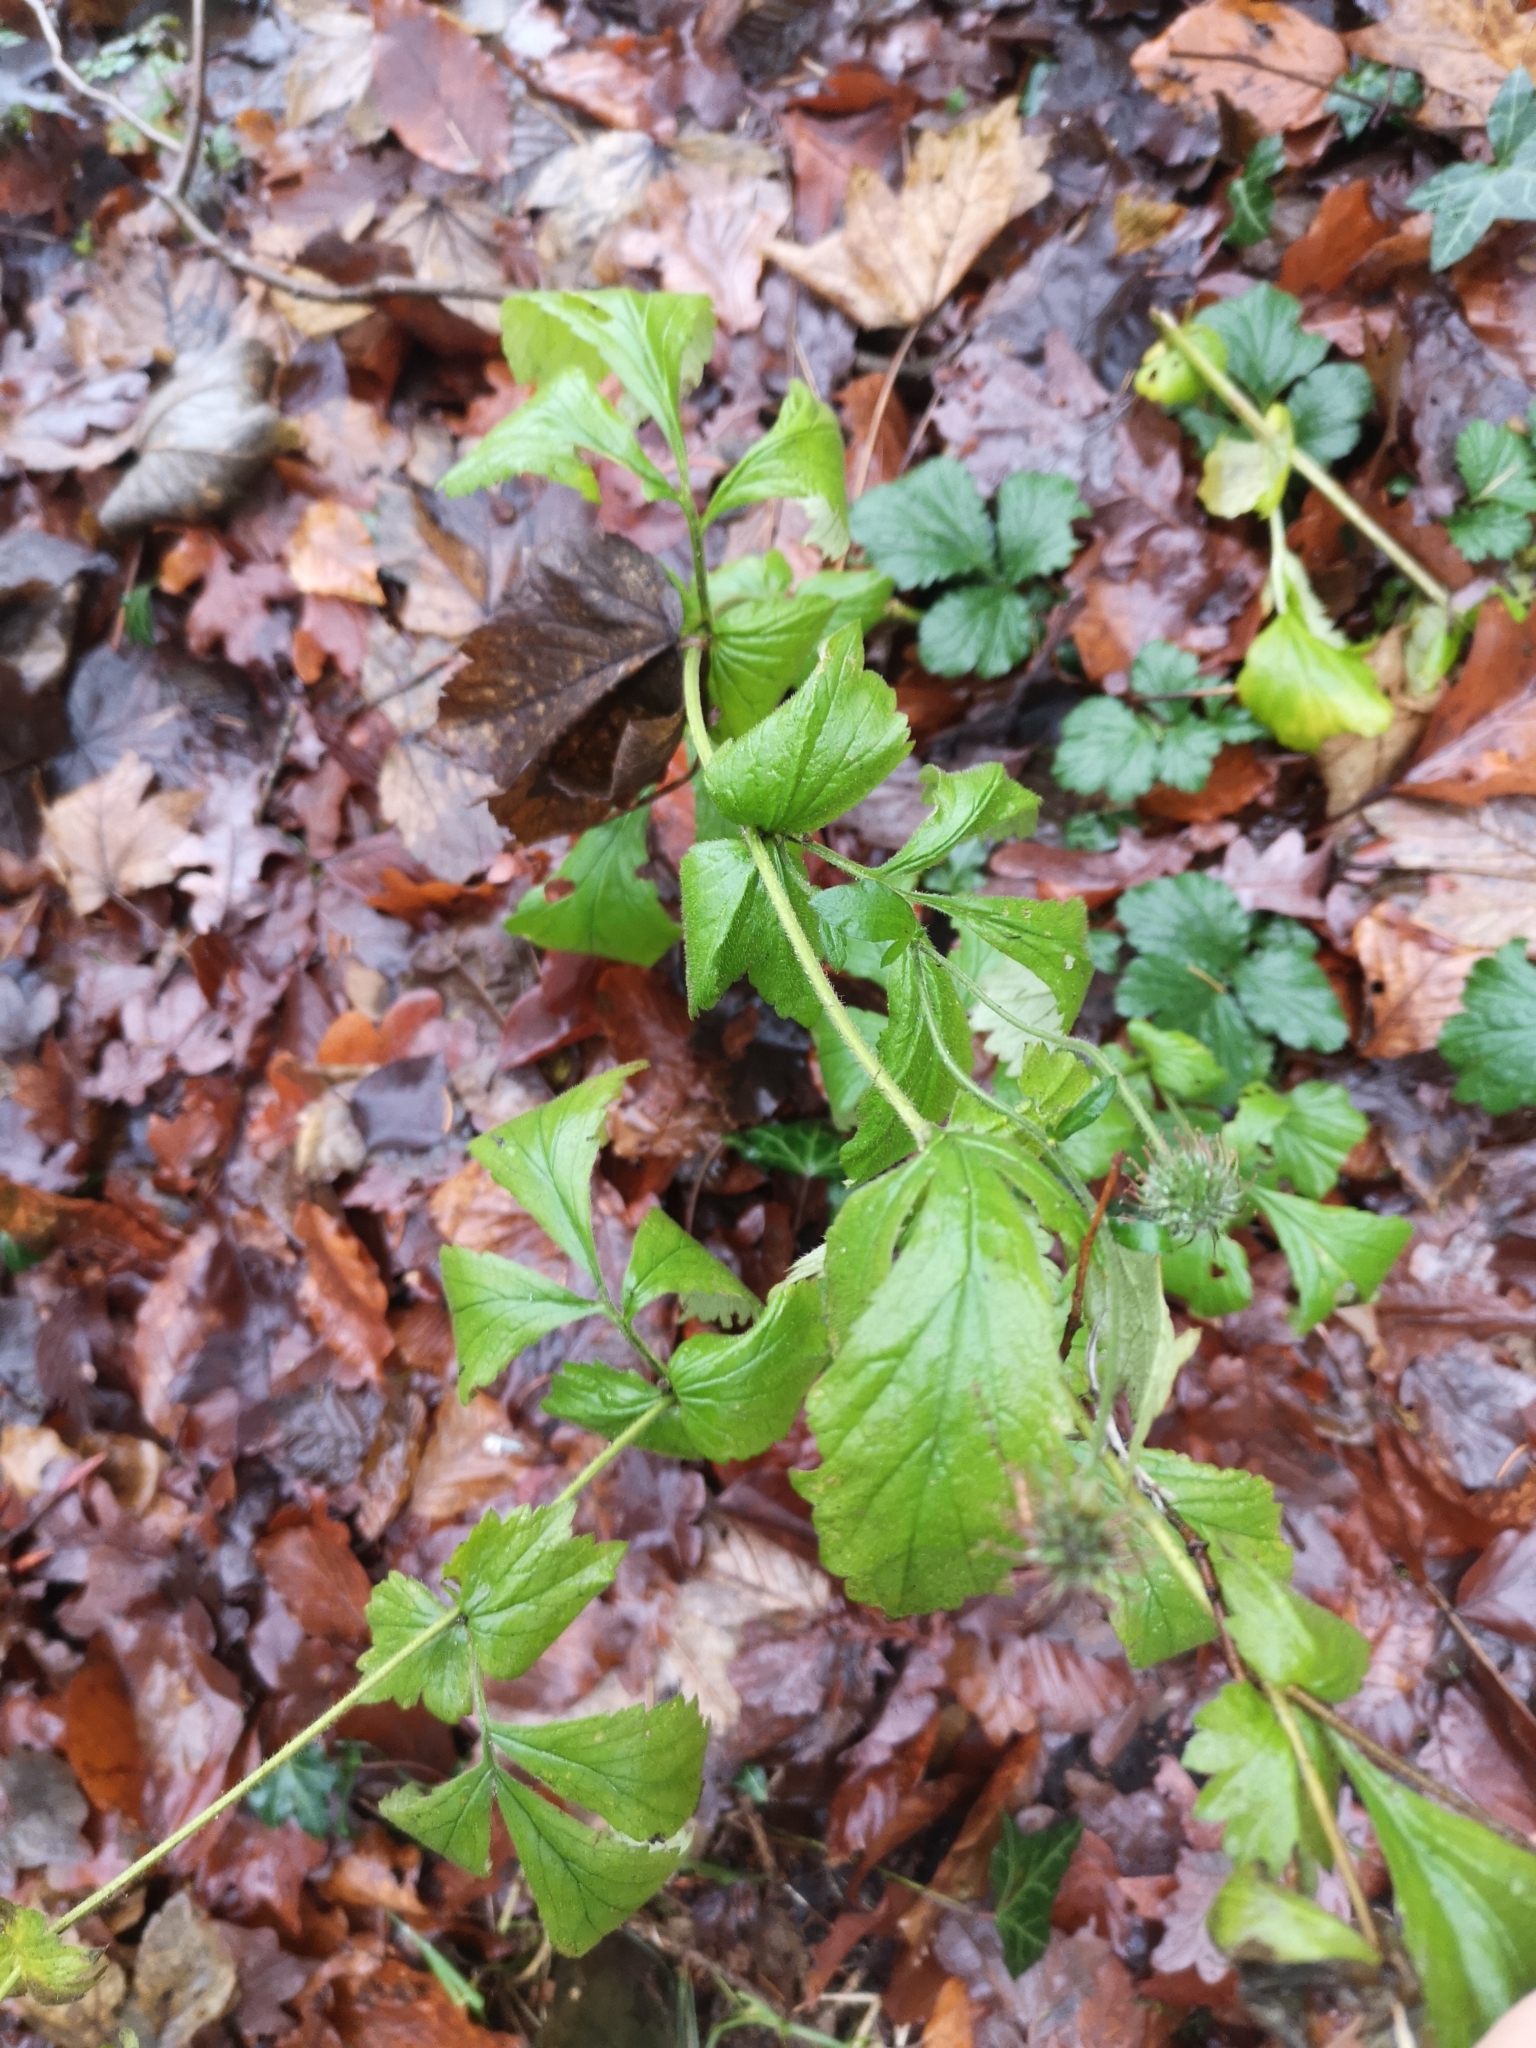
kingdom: Plantae
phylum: Tracheophyta
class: Magnoliopsida
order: Rosales
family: Rosaceae
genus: Geum
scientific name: Geum urbanum
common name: Wood avens
